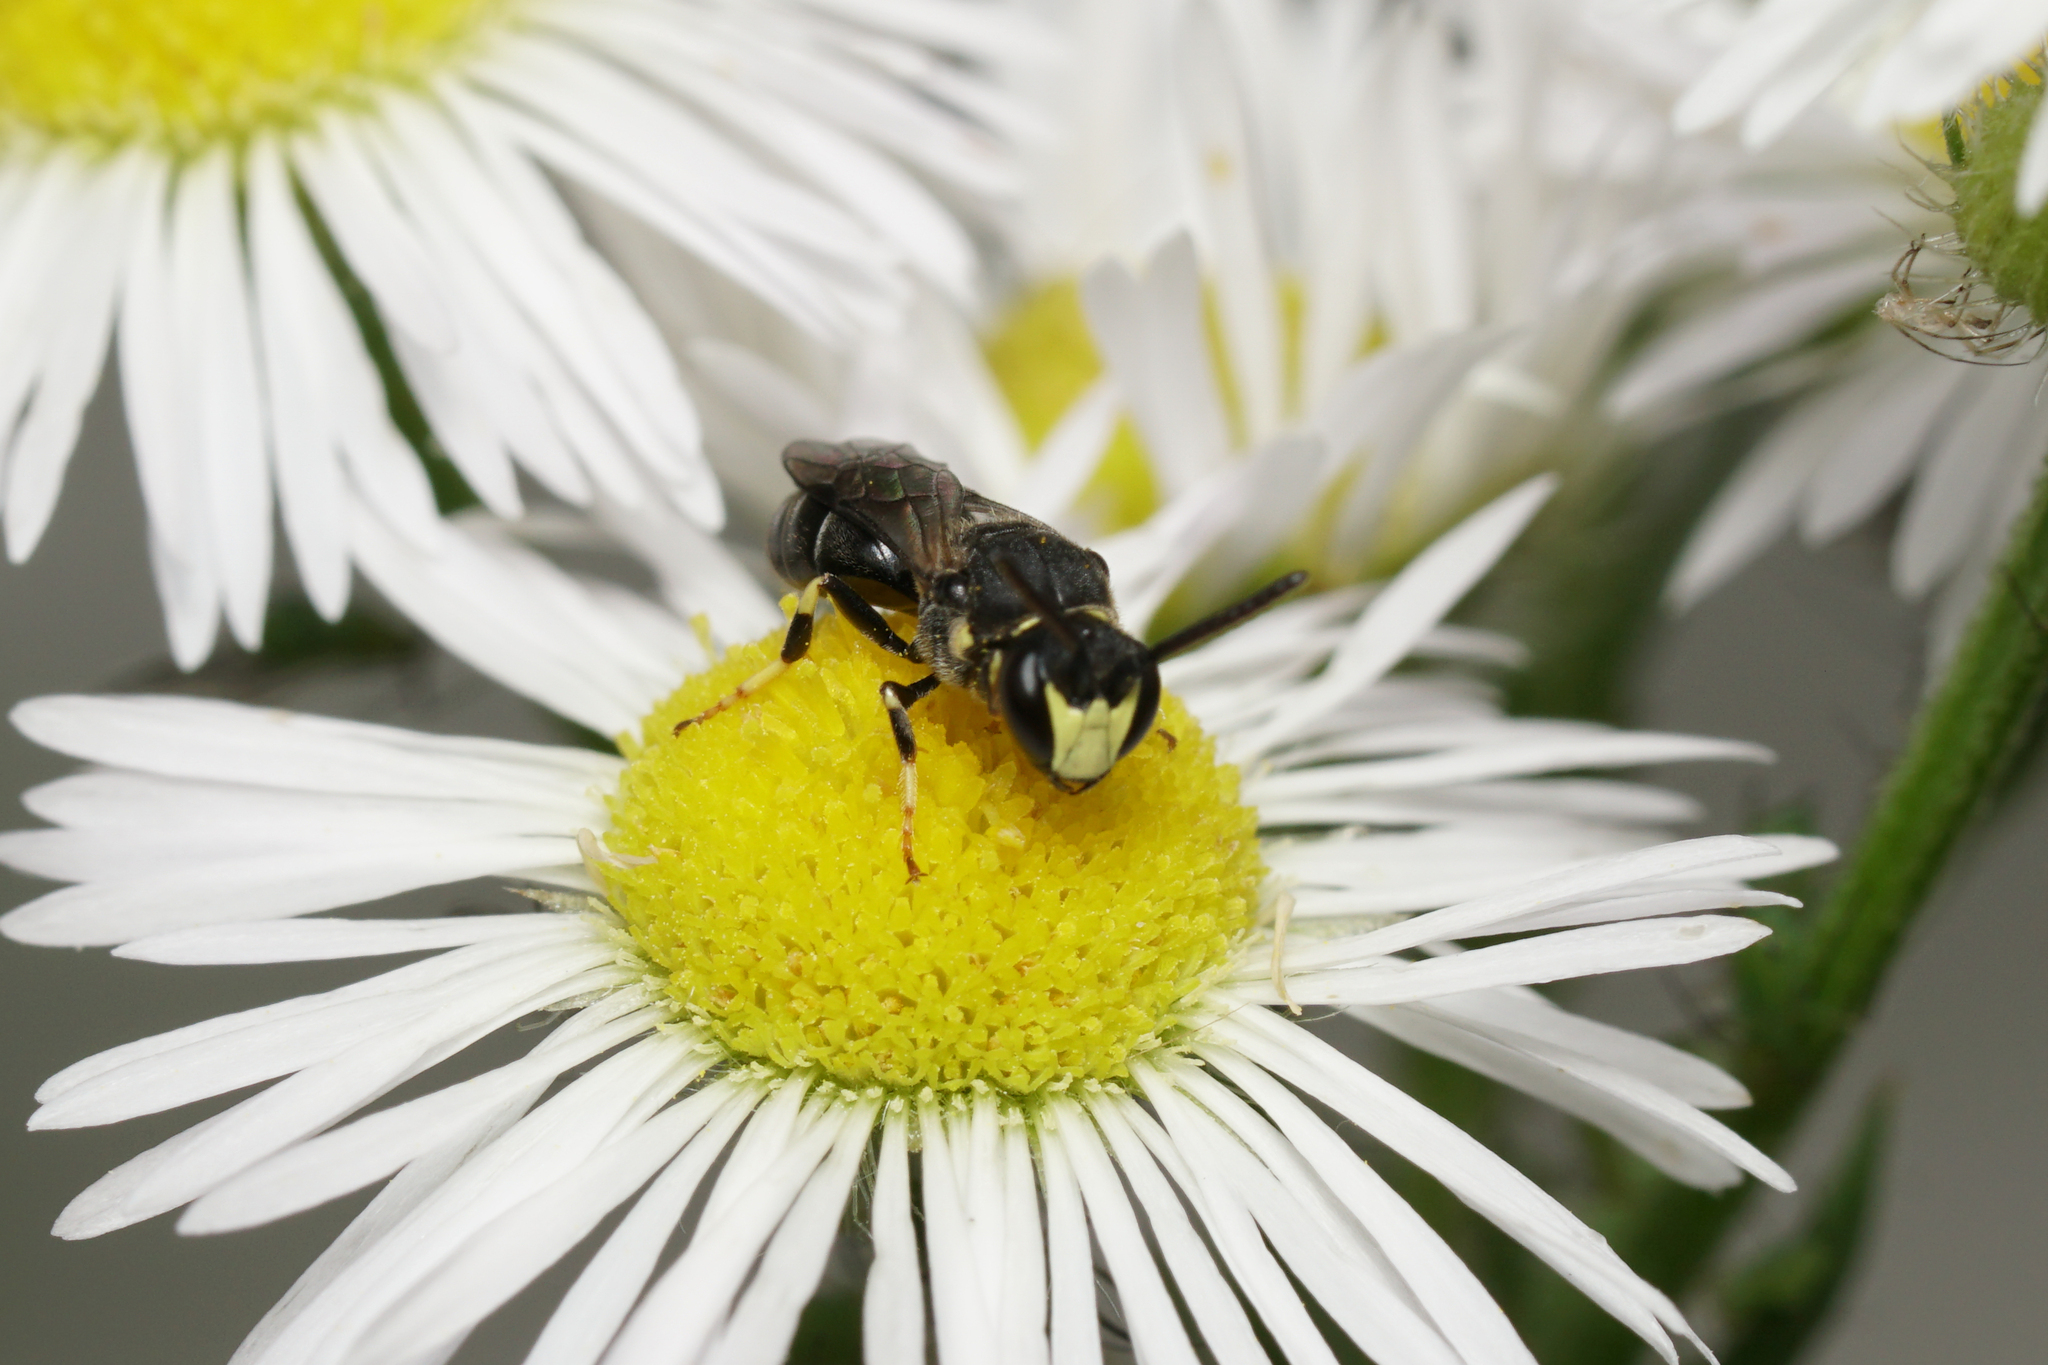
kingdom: Animalia
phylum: Arthropoda
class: Insecta
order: Hymenoptera
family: Colletidae
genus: Hylaeus
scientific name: Hylaeus modestus
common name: Yellow-faced bee
